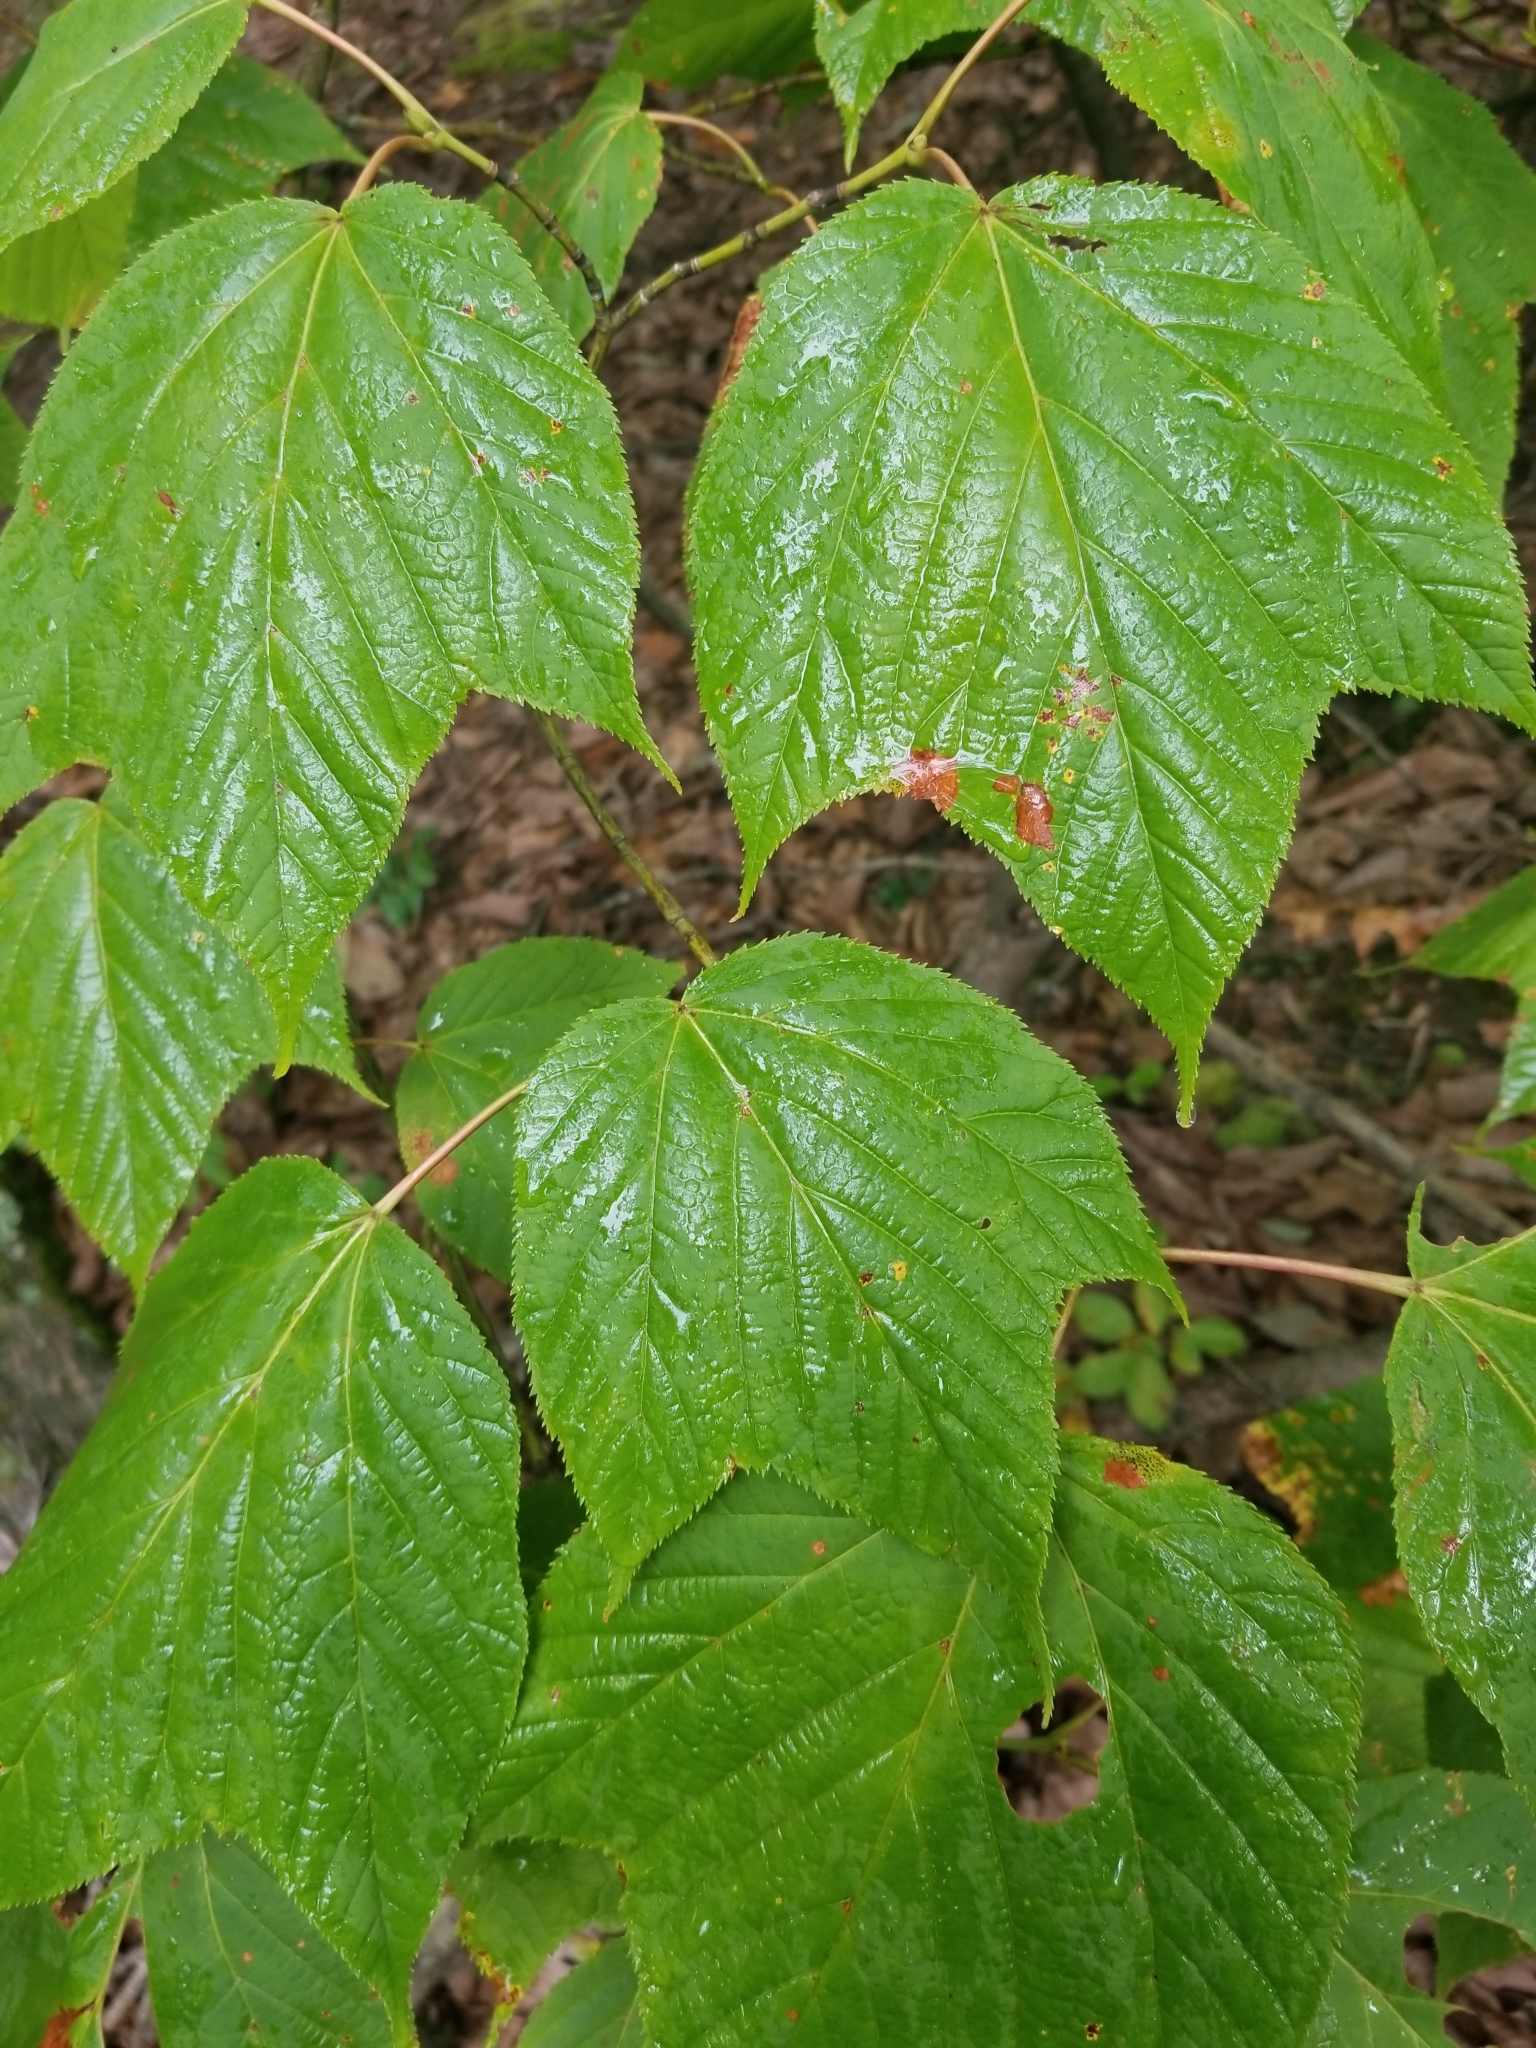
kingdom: Plantae
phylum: Tracheophyta
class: Magnoliopsida
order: Sapindales
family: Sapindaceae
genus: Acer
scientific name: Acer pensylvanicum
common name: Moosewood
